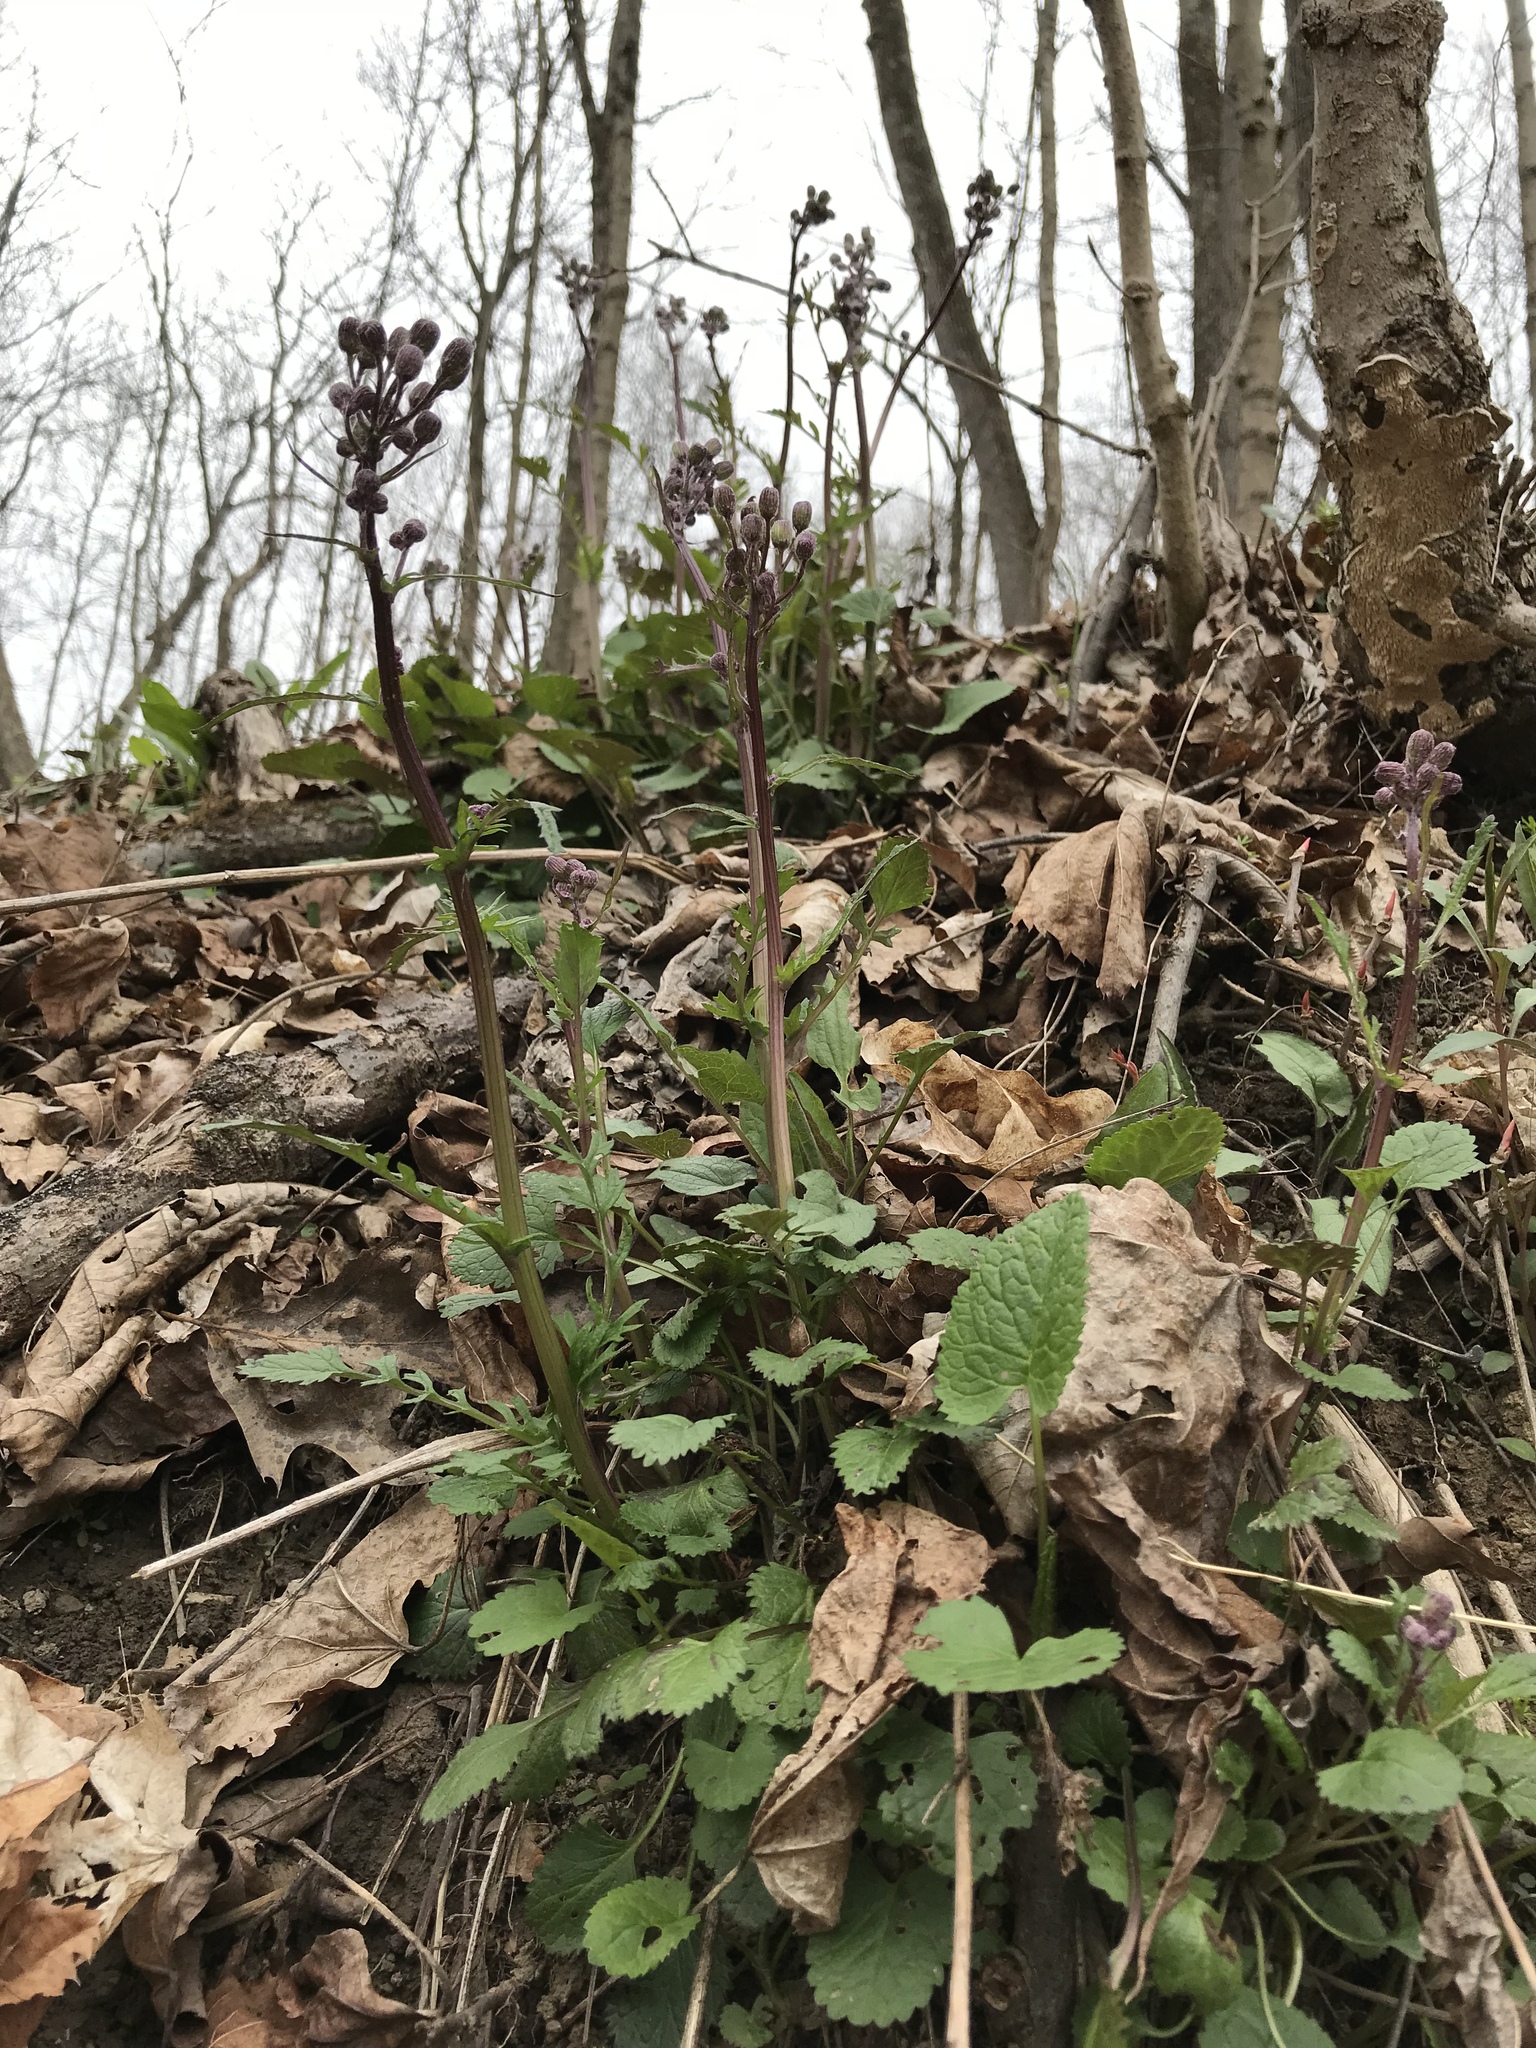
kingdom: Plantae
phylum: Tracheophyta
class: Magnoliopsida
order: Asterales
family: Asteraceae
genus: Packera
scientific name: Packera aurea
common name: Golden groundsel
